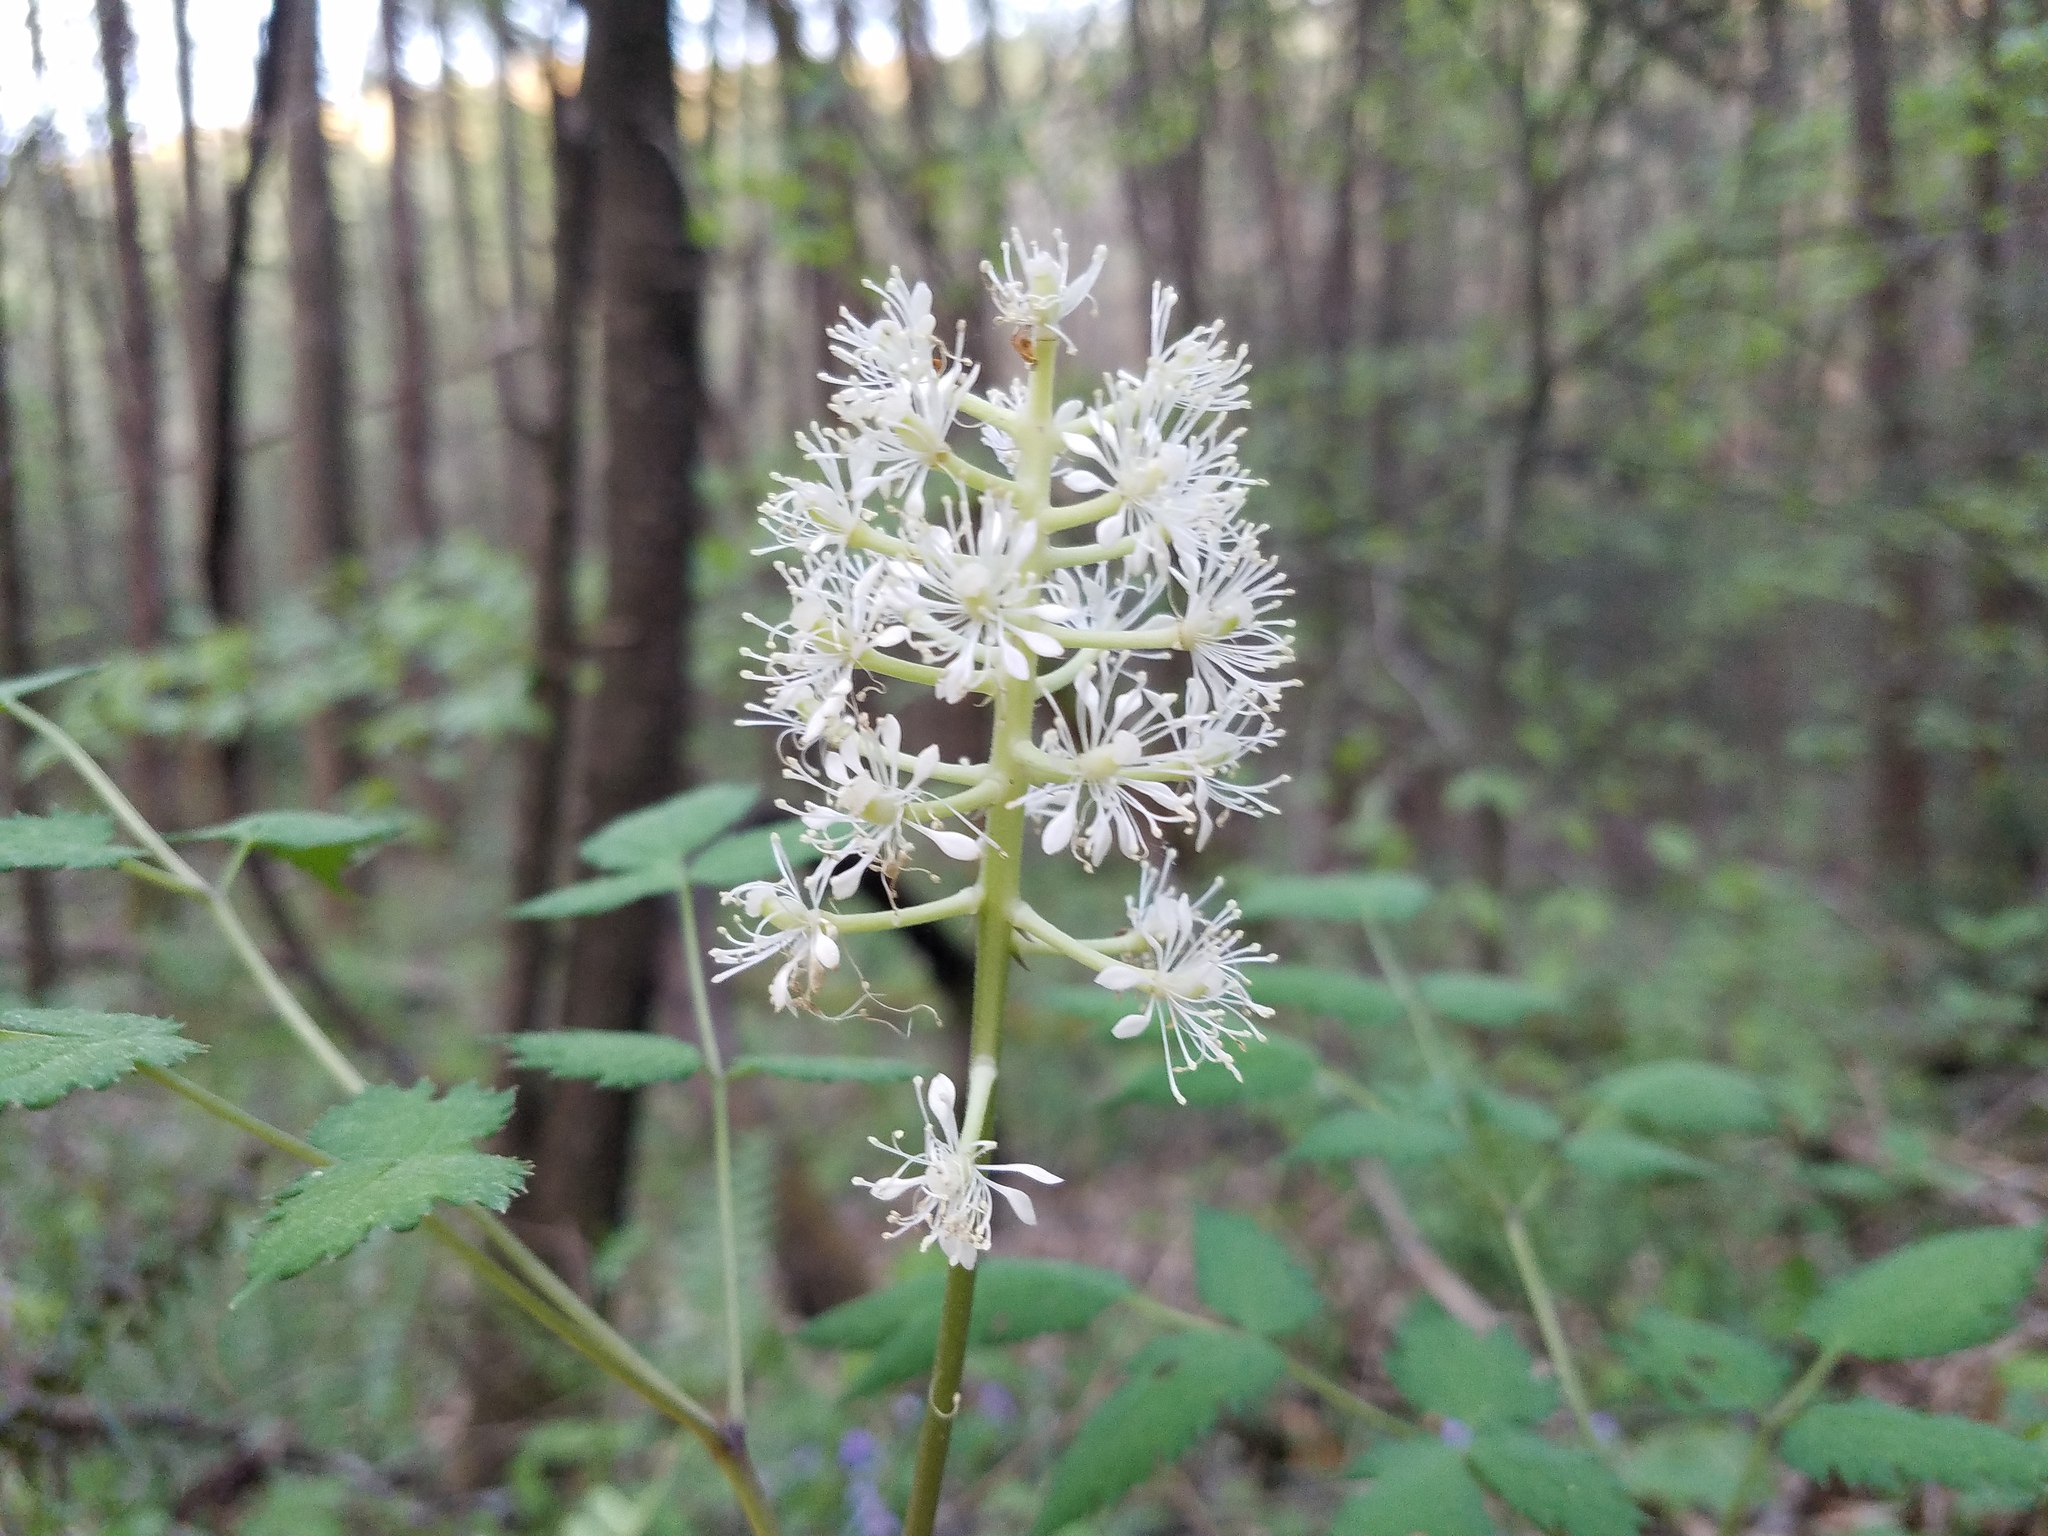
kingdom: Plantae
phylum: Tracheophyta
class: Magnoliopsida
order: Ranunculales
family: Ranunculaceae
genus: Actaea
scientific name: Actaea pachypoda
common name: Doll's-eyes
